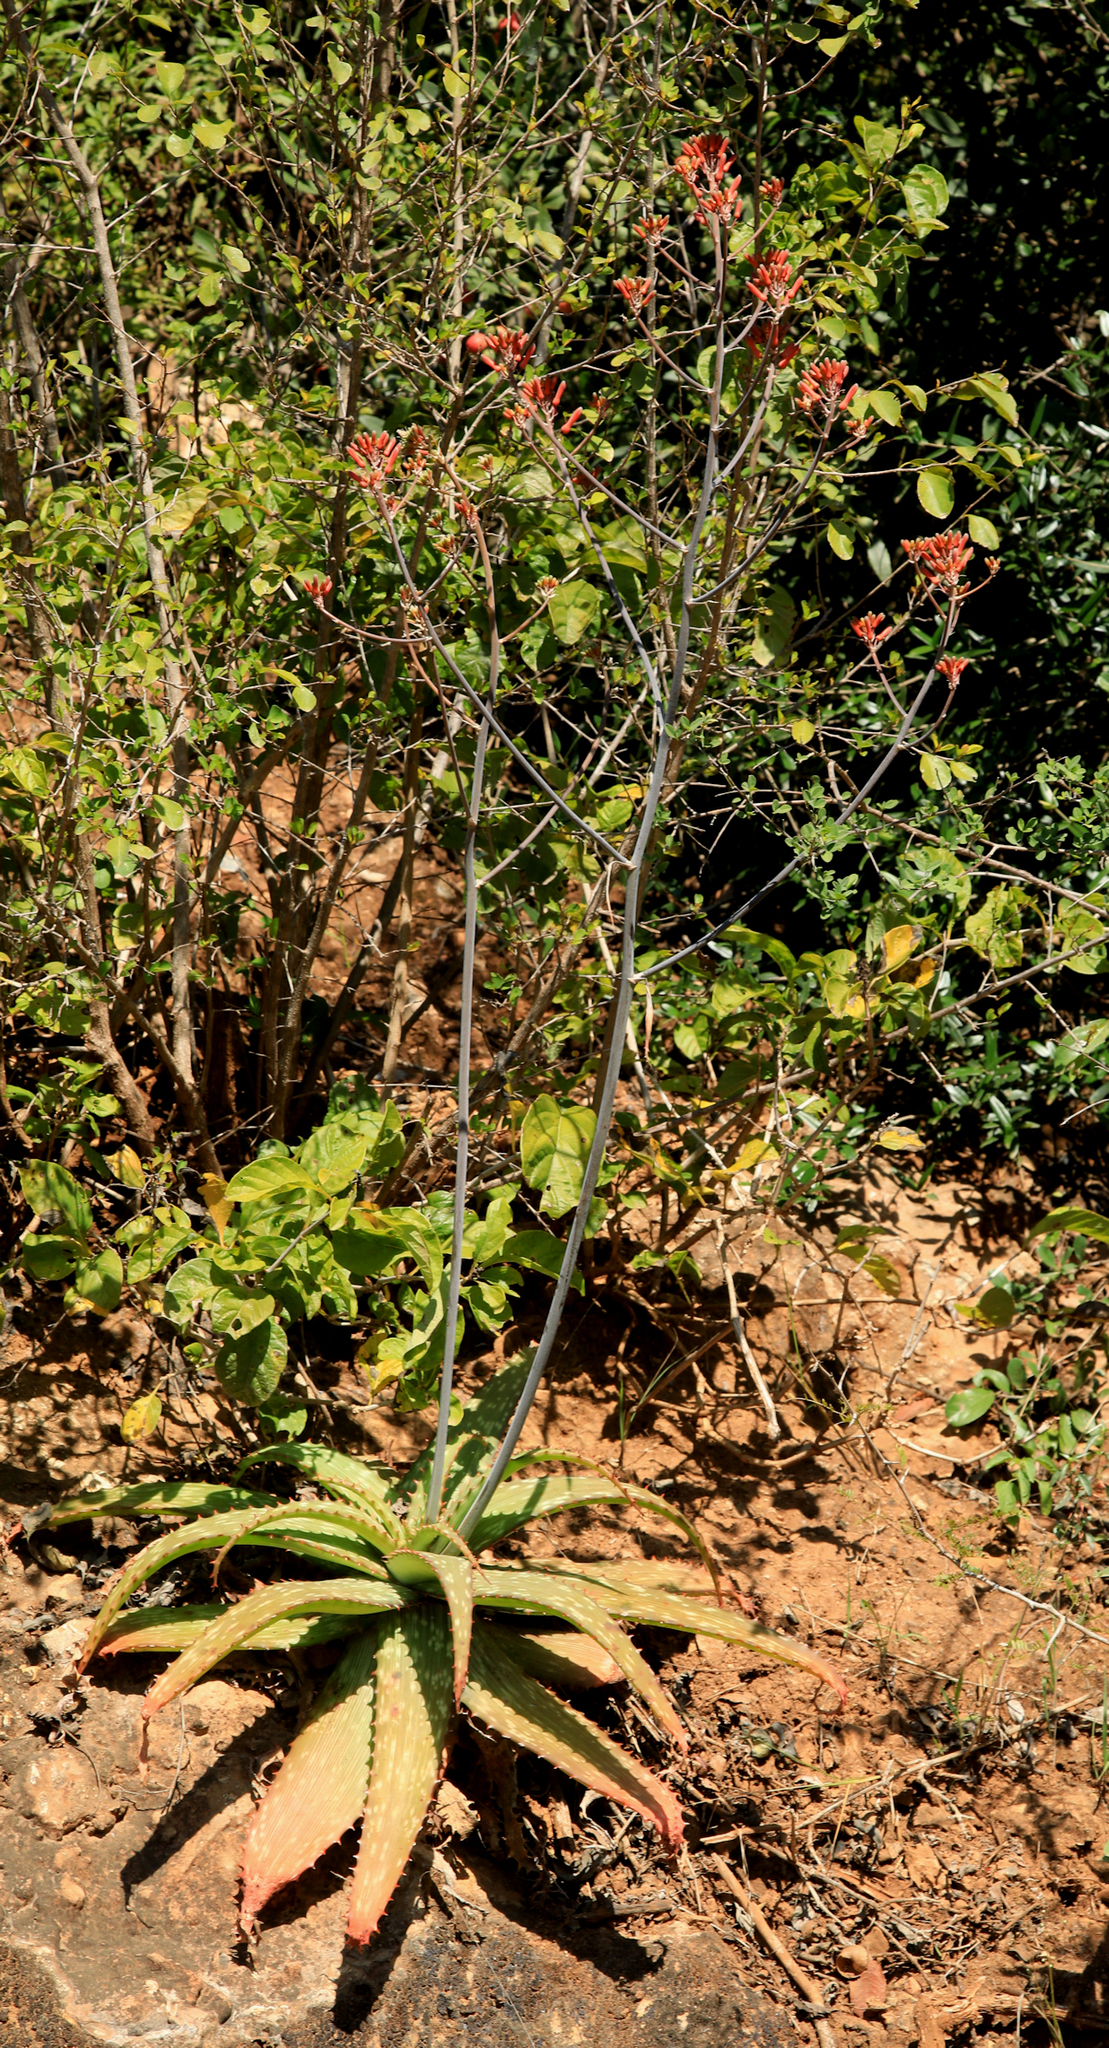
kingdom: Plantae
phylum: Tracheophyta
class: Liliopsida
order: Asparagales
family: Asphodelaceae
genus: Aloe
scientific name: Aloe branddraaiensis
